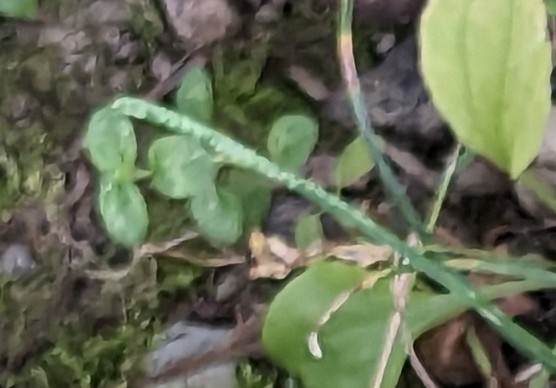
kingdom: Plantae
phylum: Tracheophyta
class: Magnoliopsida
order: Lamiales
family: Plantaginaceae
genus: Veronica
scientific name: Veronica serpyllifolia
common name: Thyme-leaved speedwell
